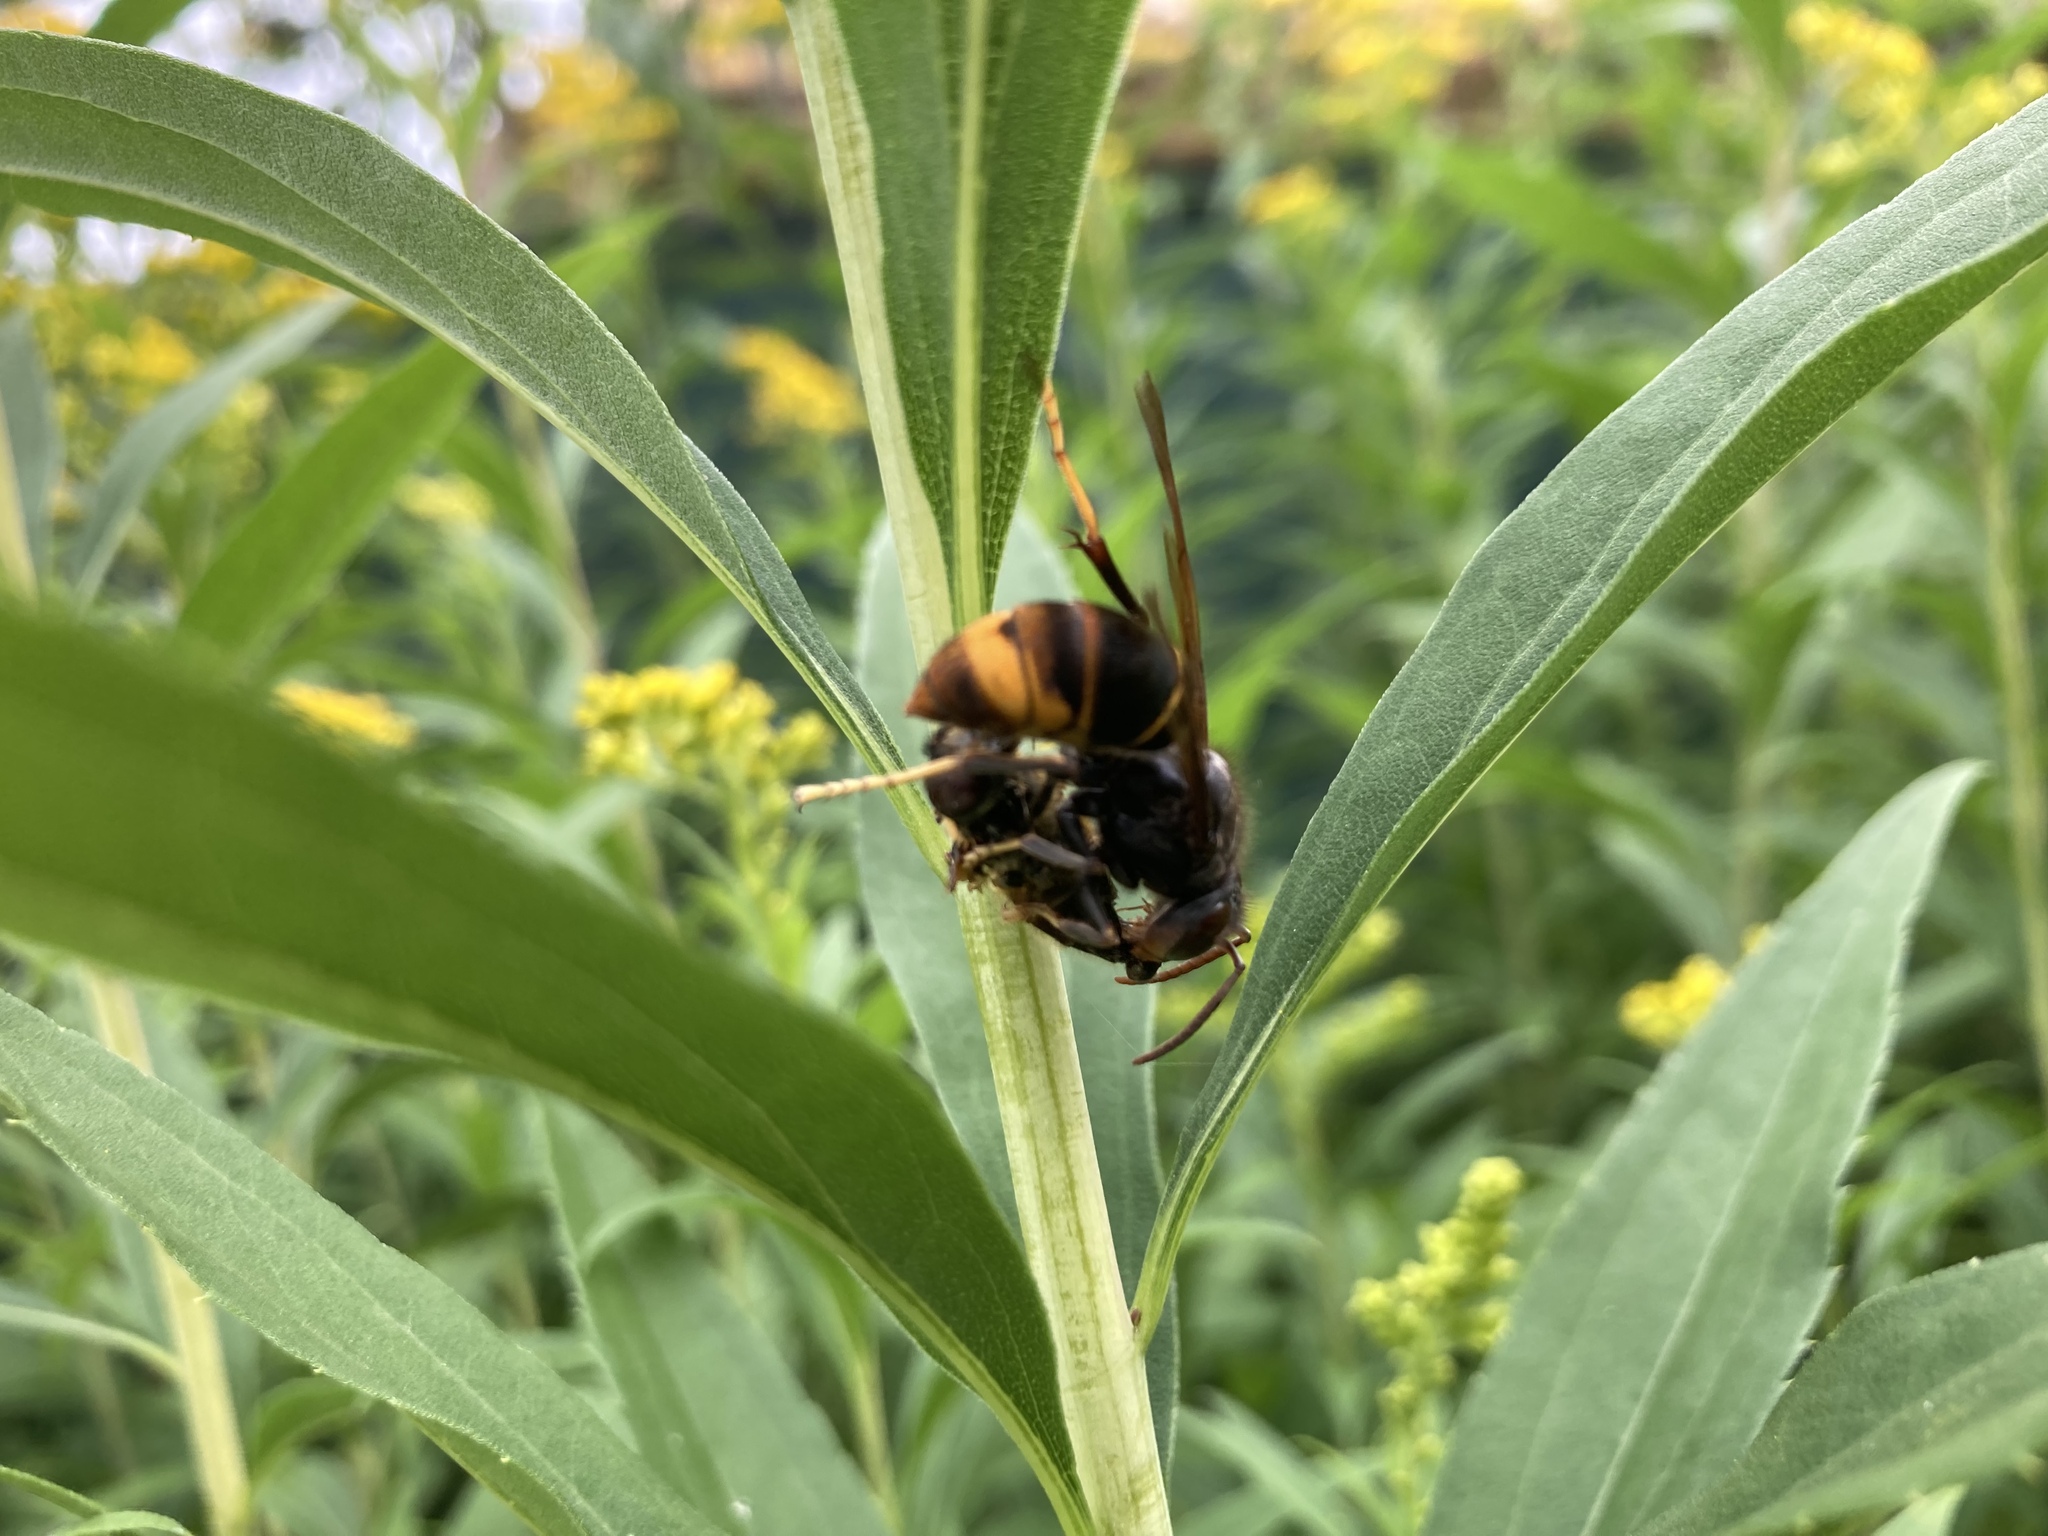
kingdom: Animalia
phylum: Arthropoda
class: Insecta
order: Hymenoptera
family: Vespidae
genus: Vespa
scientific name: Vespa velutina
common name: Asian hornet
